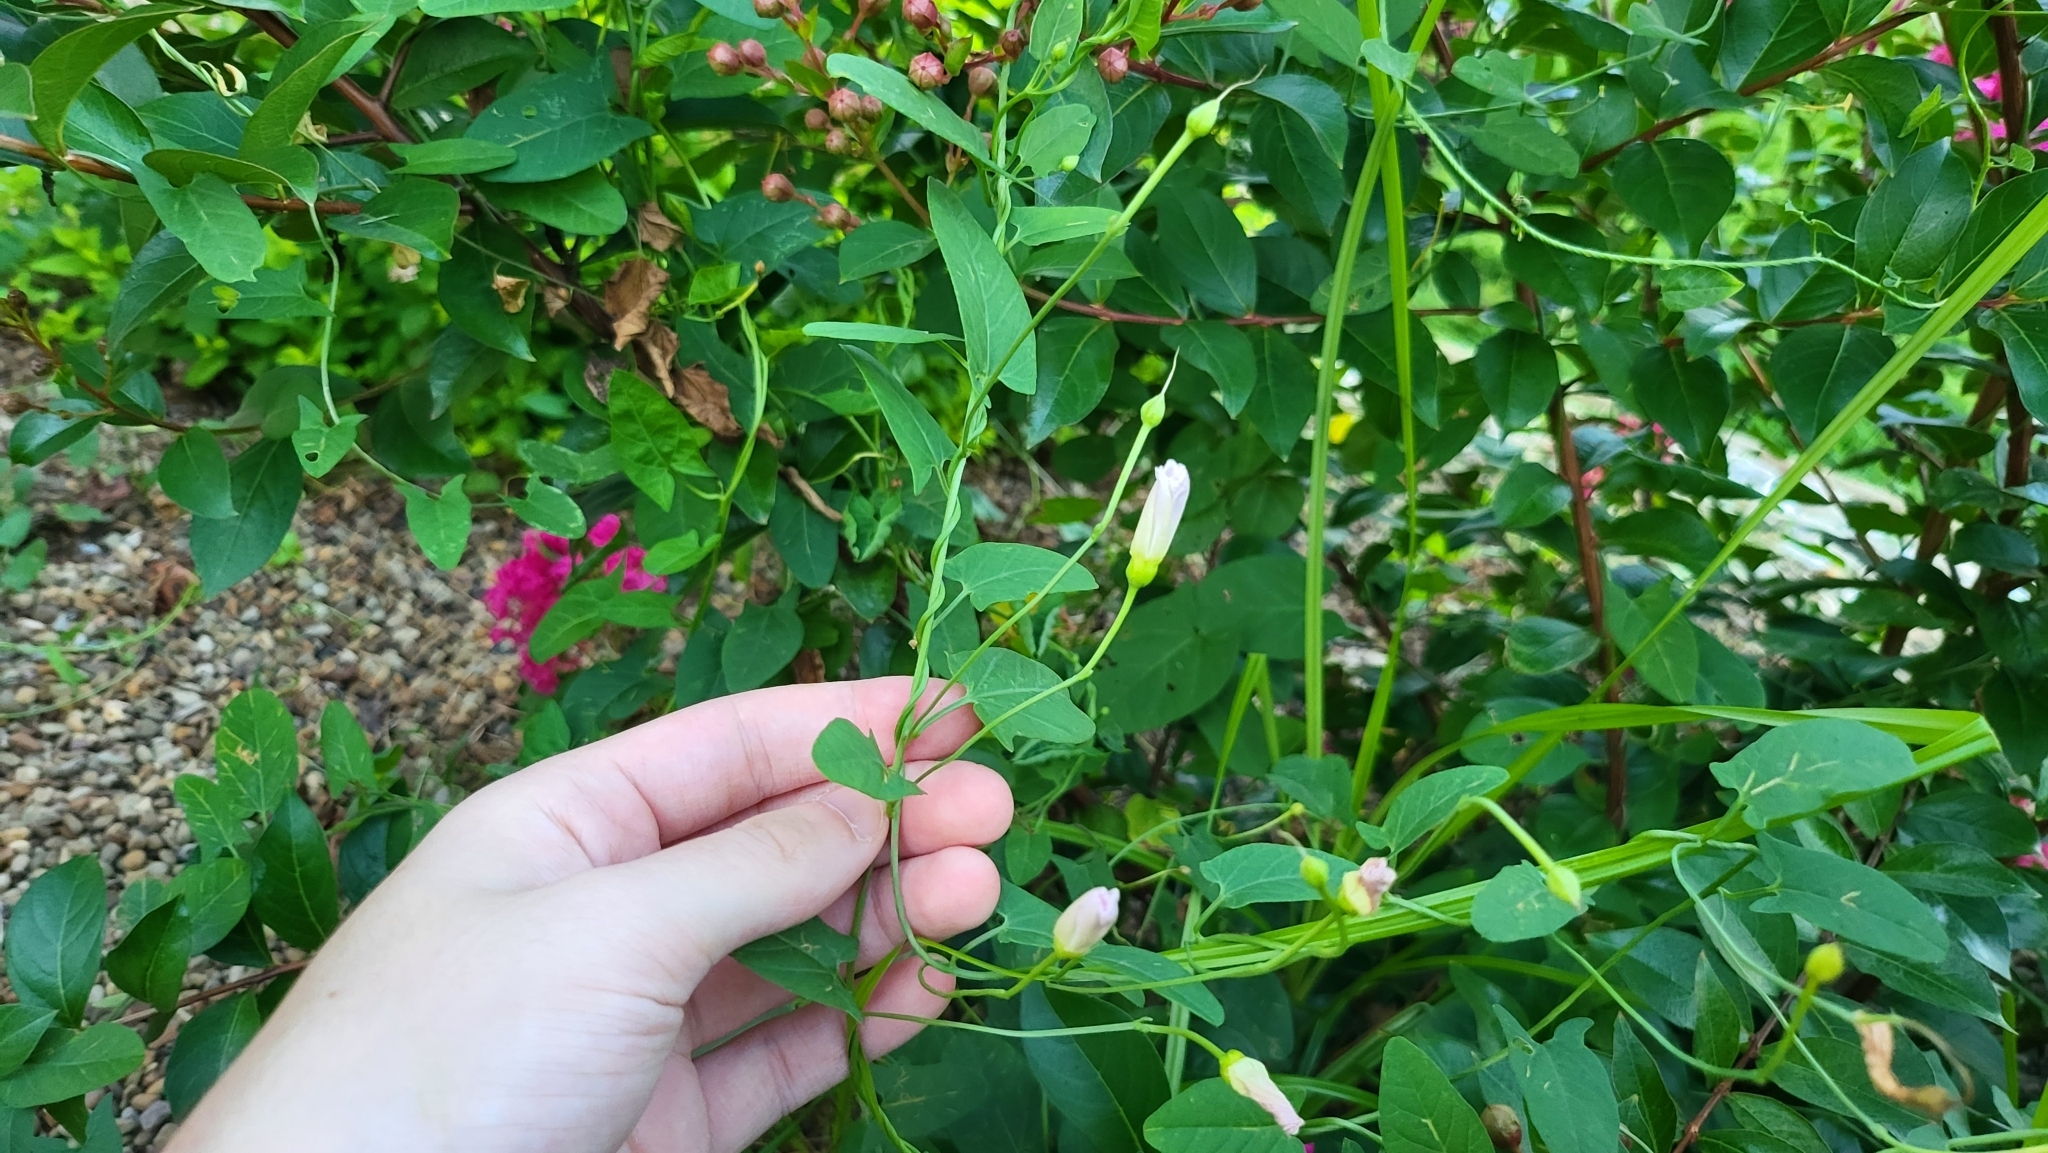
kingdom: Plantae
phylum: Tracheophyta
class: Magnoliopsida
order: Solanales
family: Convolvulaceae
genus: Convolvulus
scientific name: Convolvulus arvensis
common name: Field bindweed
